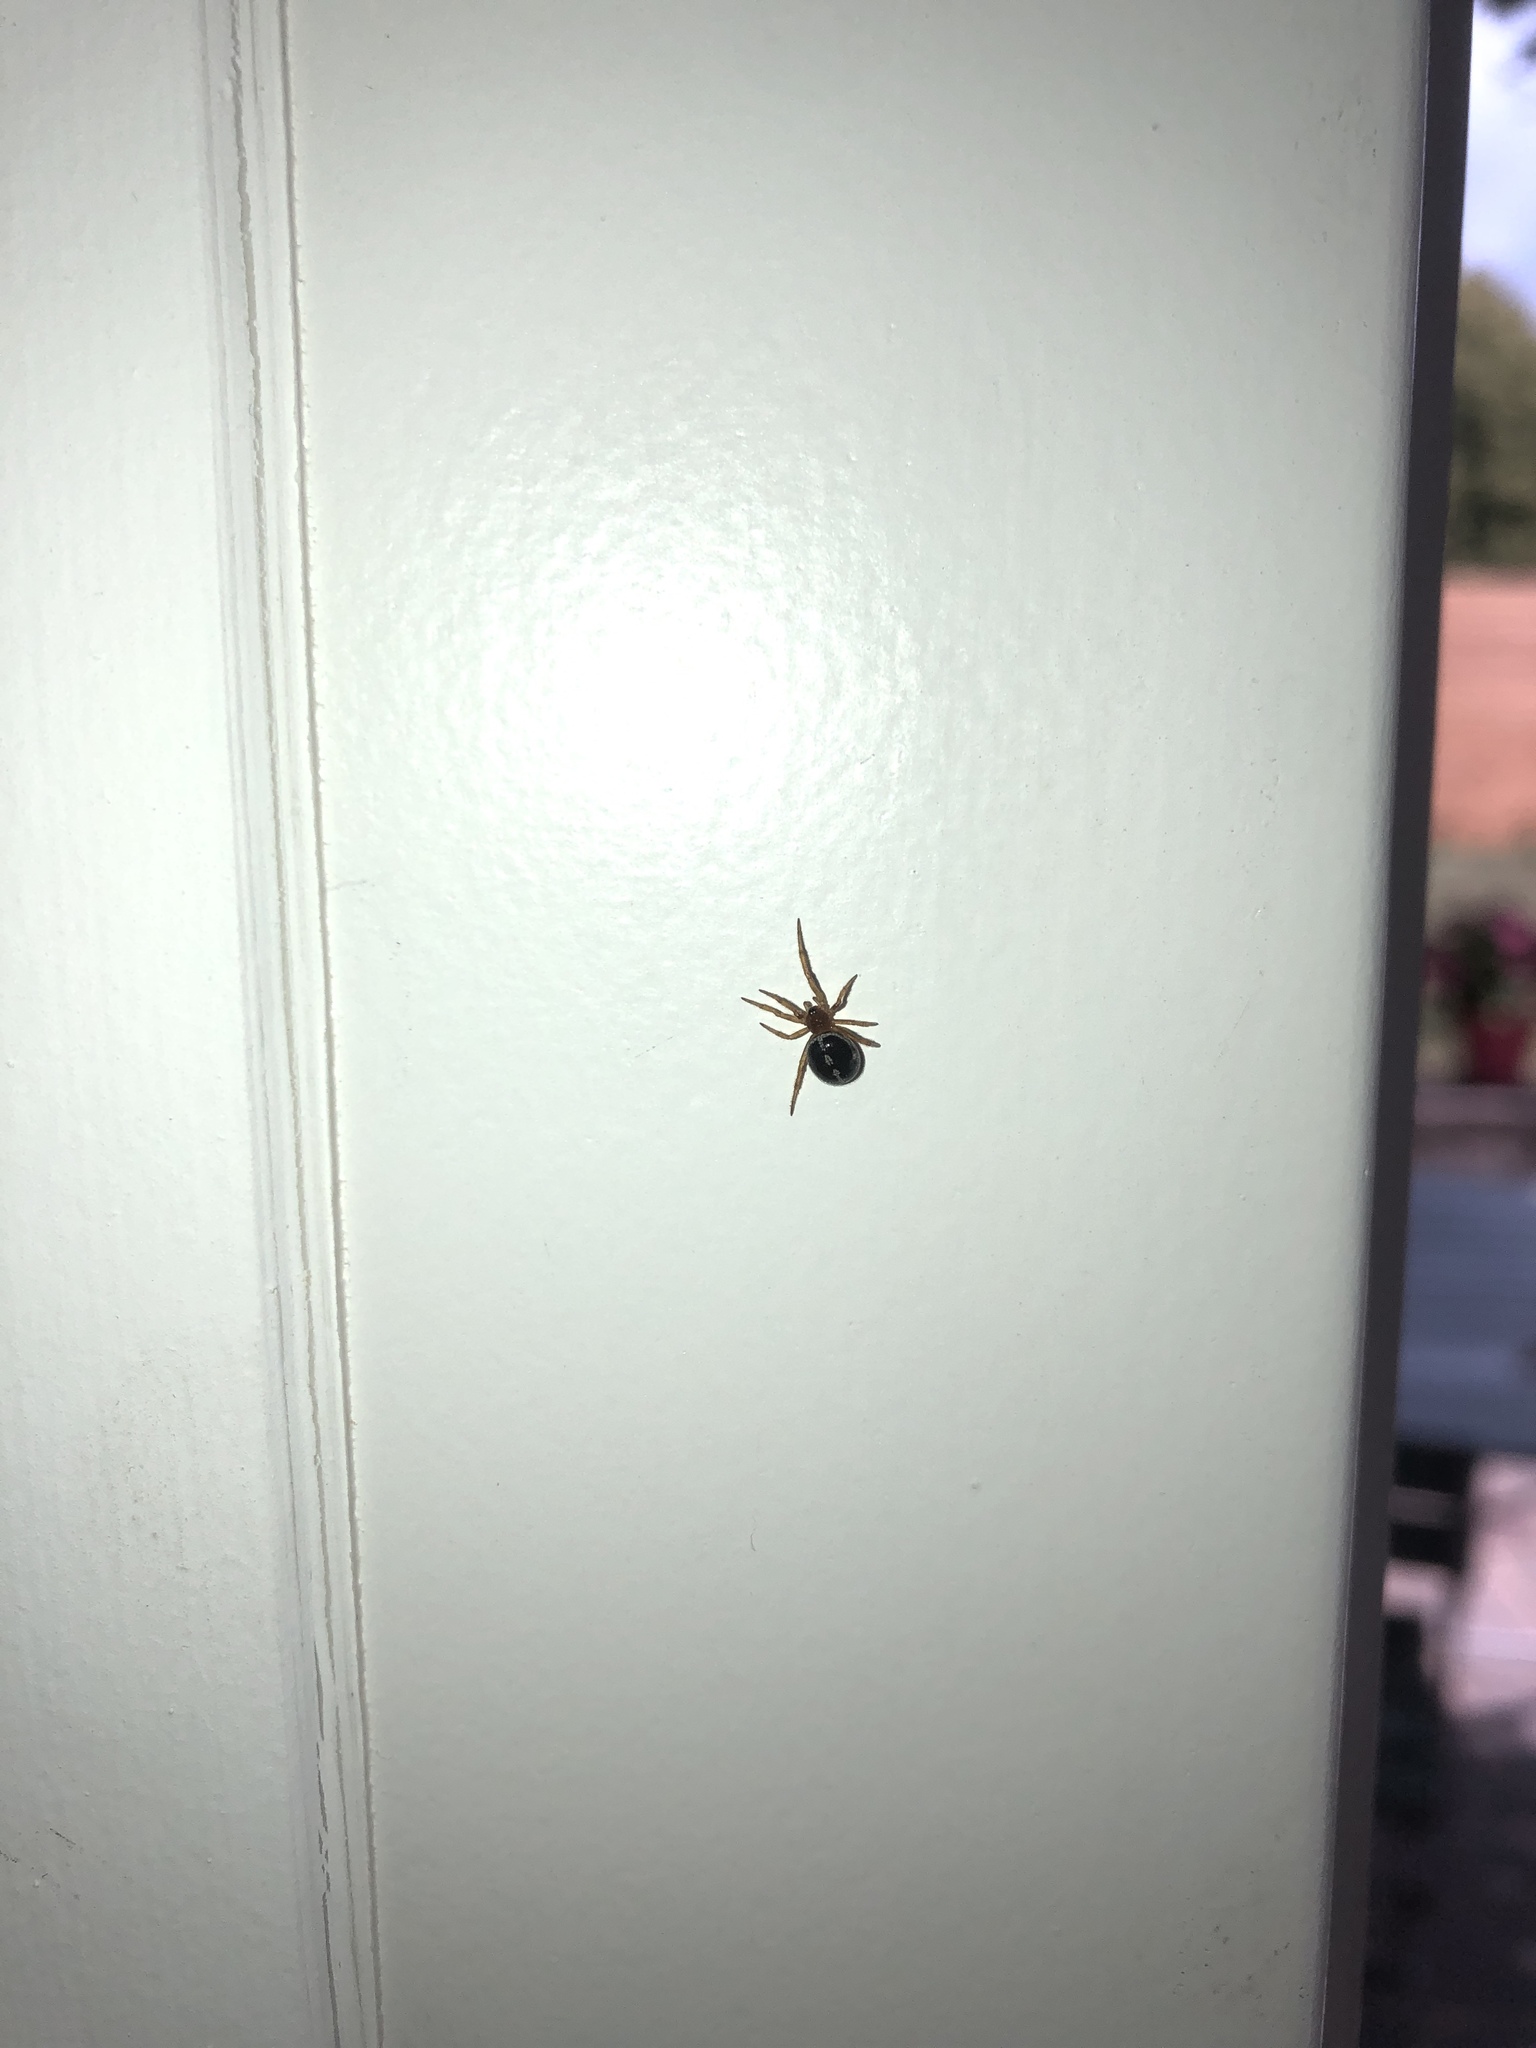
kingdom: Animalia
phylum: Arthropoda
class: Arachnida
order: Araneae
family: Theridiidae
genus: Steatoda
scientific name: Steatoda bipunctata
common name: False widow
